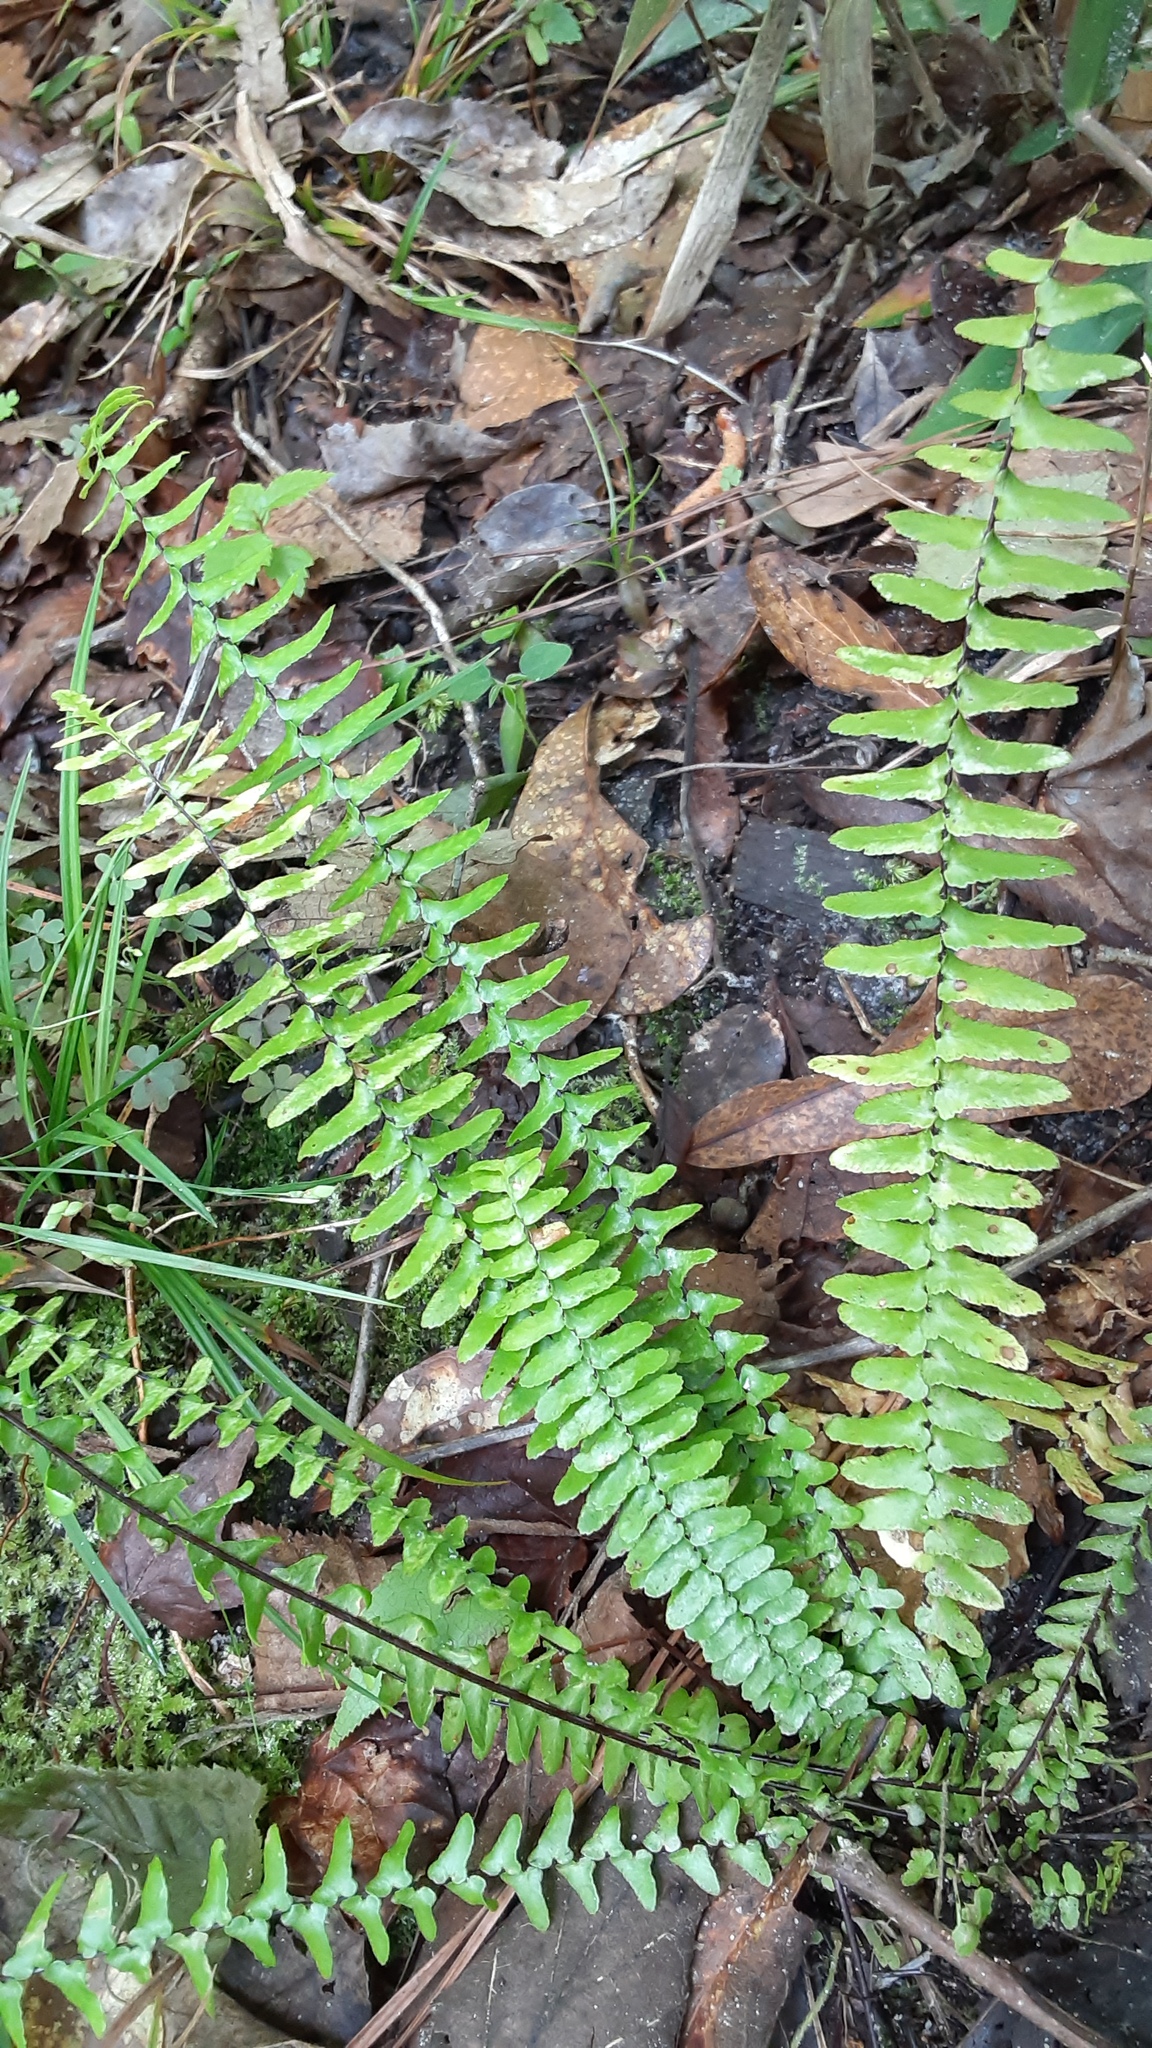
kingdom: Plantae
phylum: Tracheophyta
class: Polypodiopsida
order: Polypodiales
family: Aspleniaceae
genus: Asplenium
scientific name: Asplenium platyneuron
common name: Ebony spleenwort
